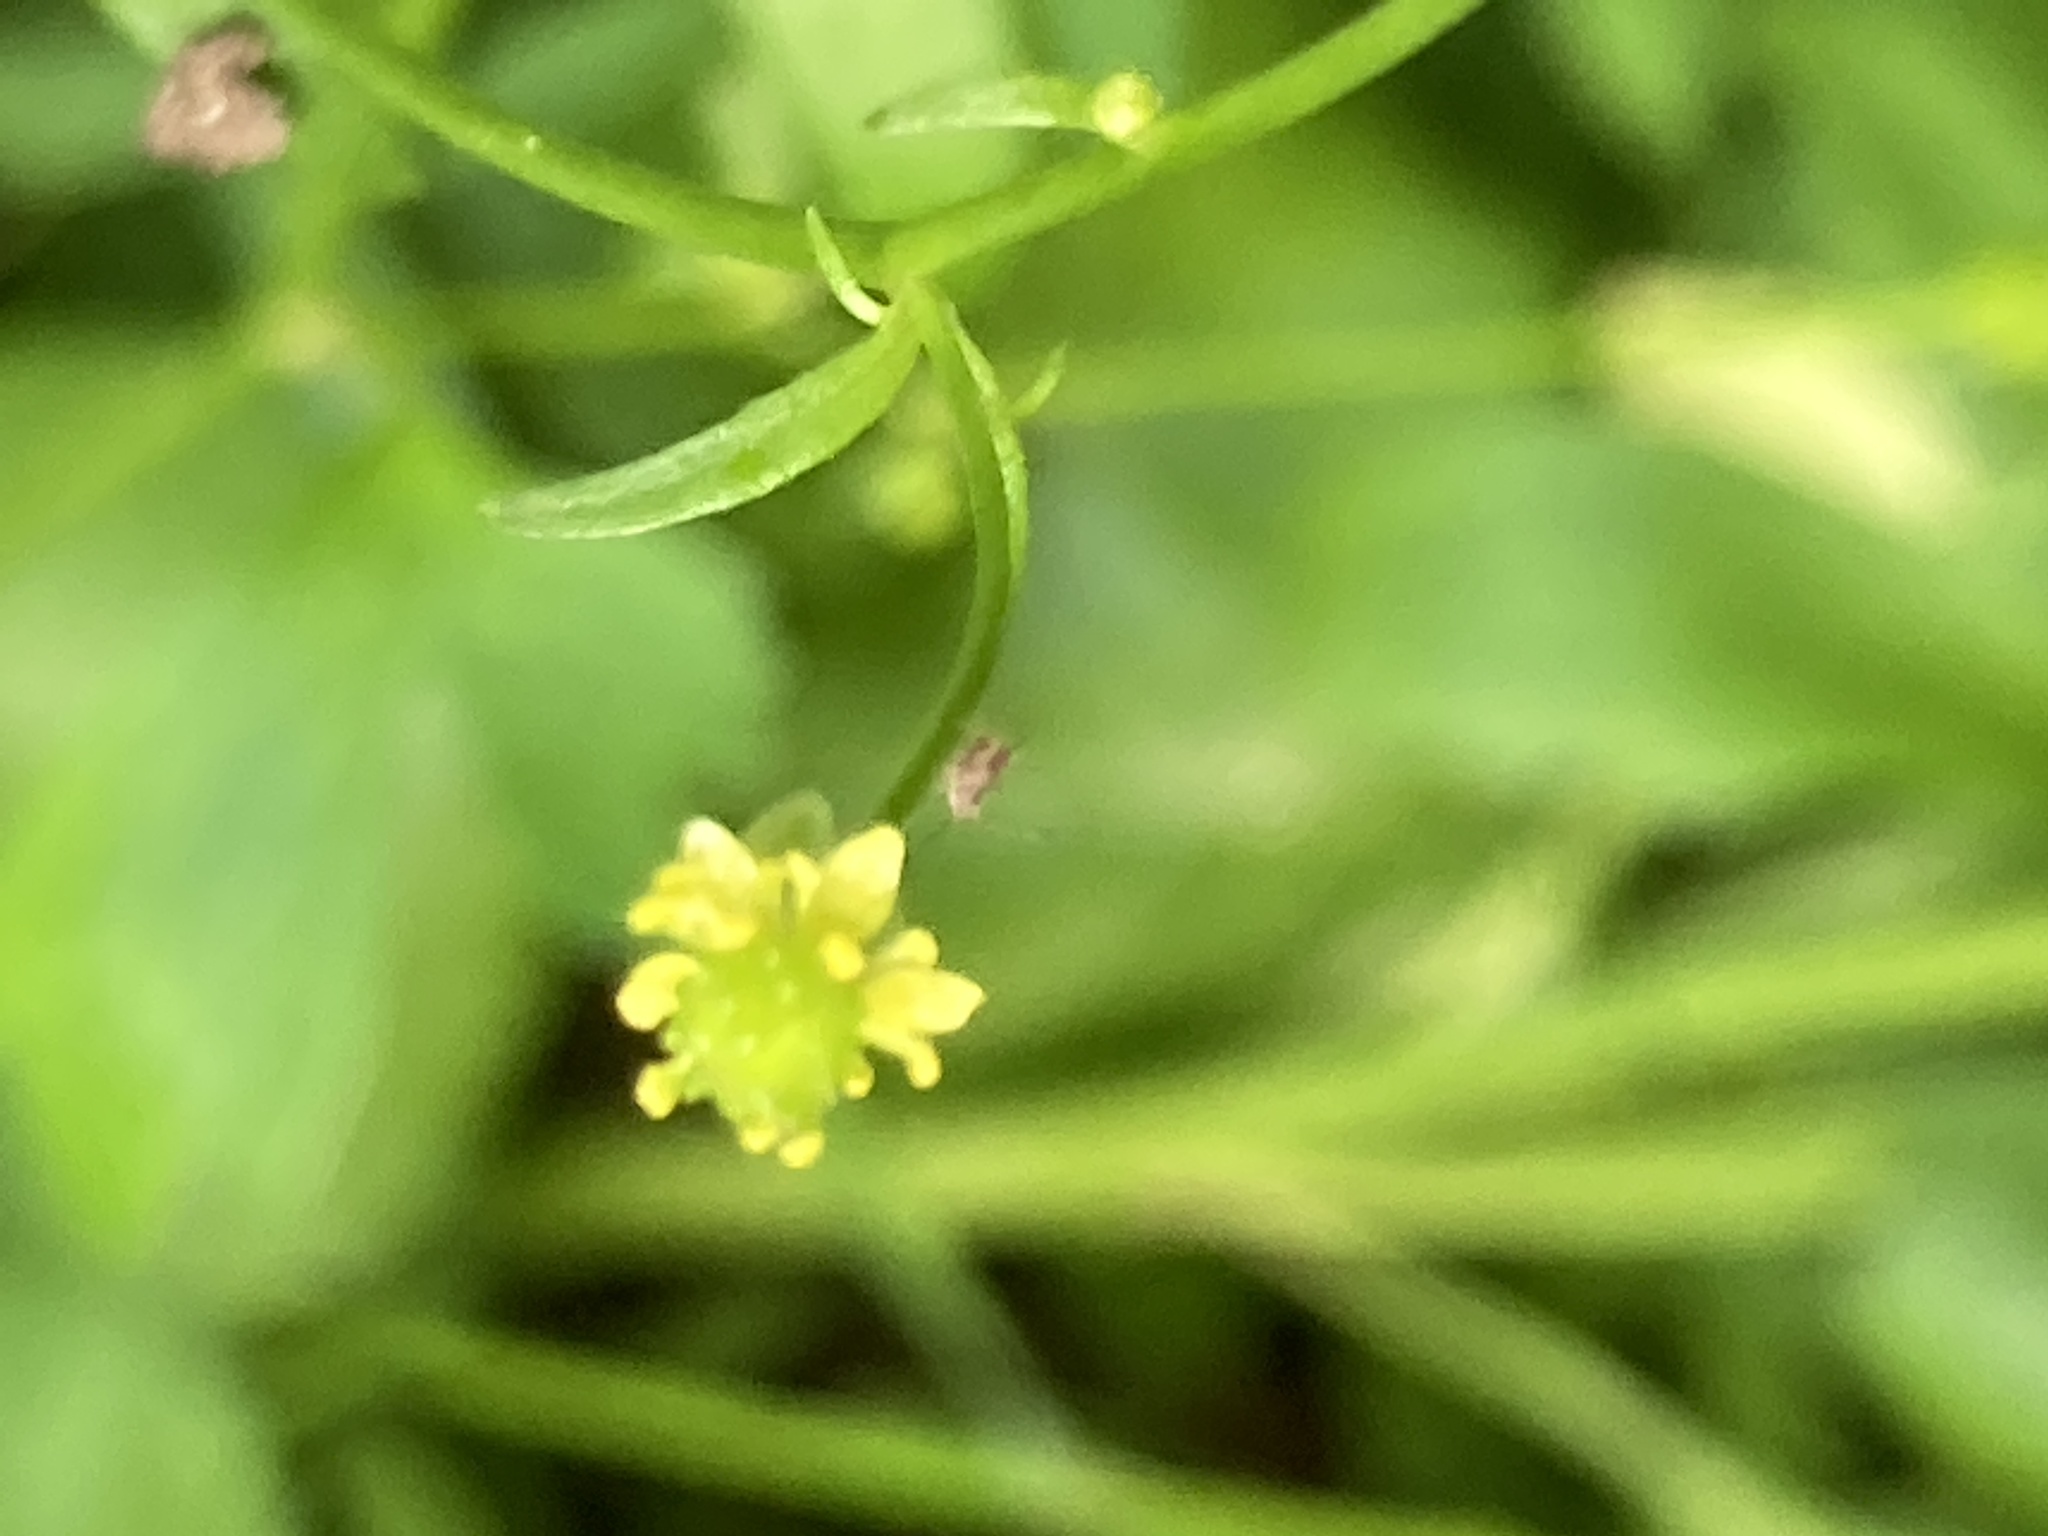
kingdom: Plantae
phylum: Tracheophyta
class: Magnoliopsida
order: Ranunculales
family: Ranunculaceae
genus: Ranunculus
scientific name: Ranunculus abortivus
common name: Early wood buttercup
